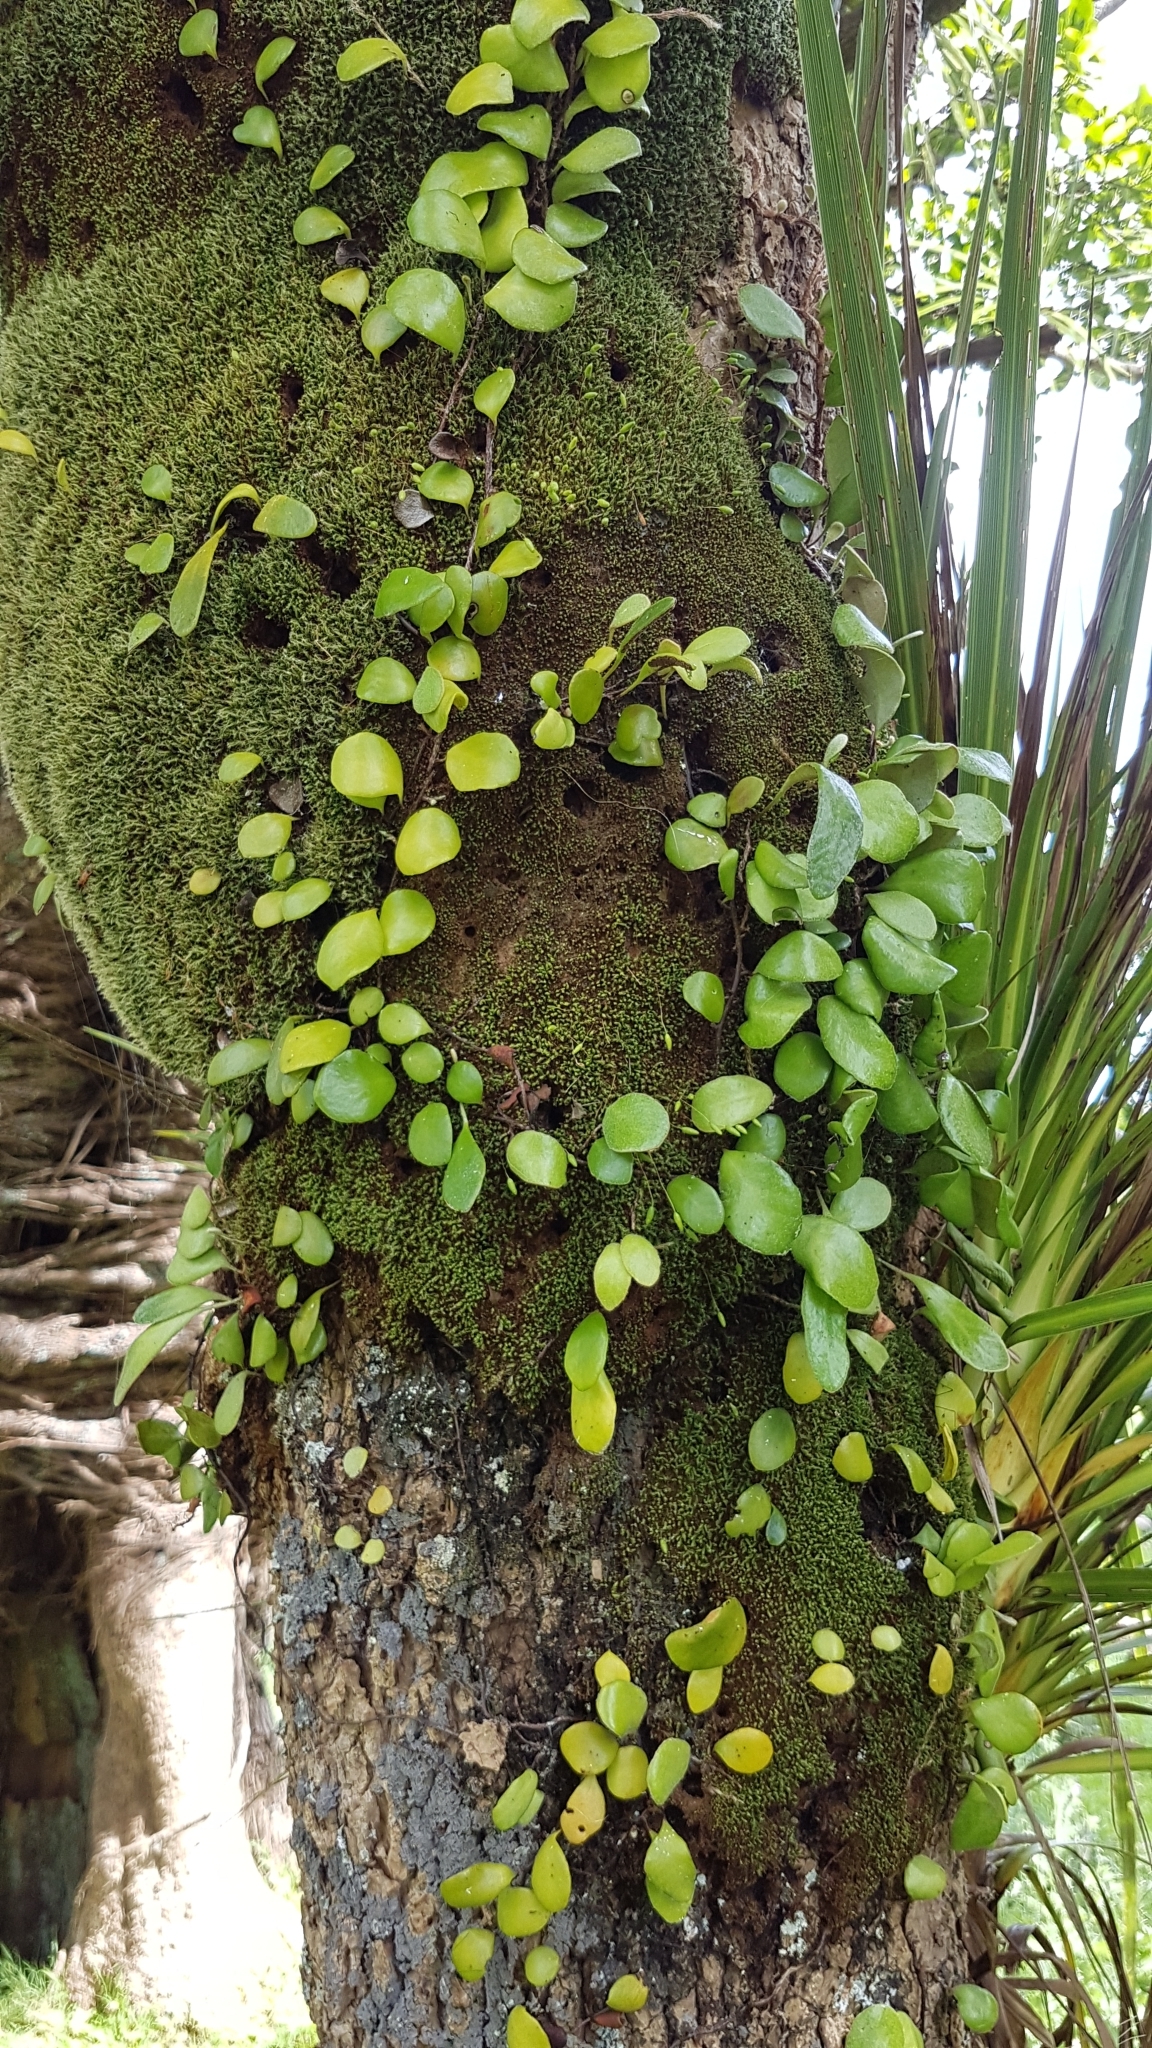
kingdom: Plantae
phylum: Tracheophyta
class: Polypodiopsida
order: Polypodiales
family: Polypodiaceae
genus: Pyrrosia
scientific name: Pyrrosia eleagnifolia
